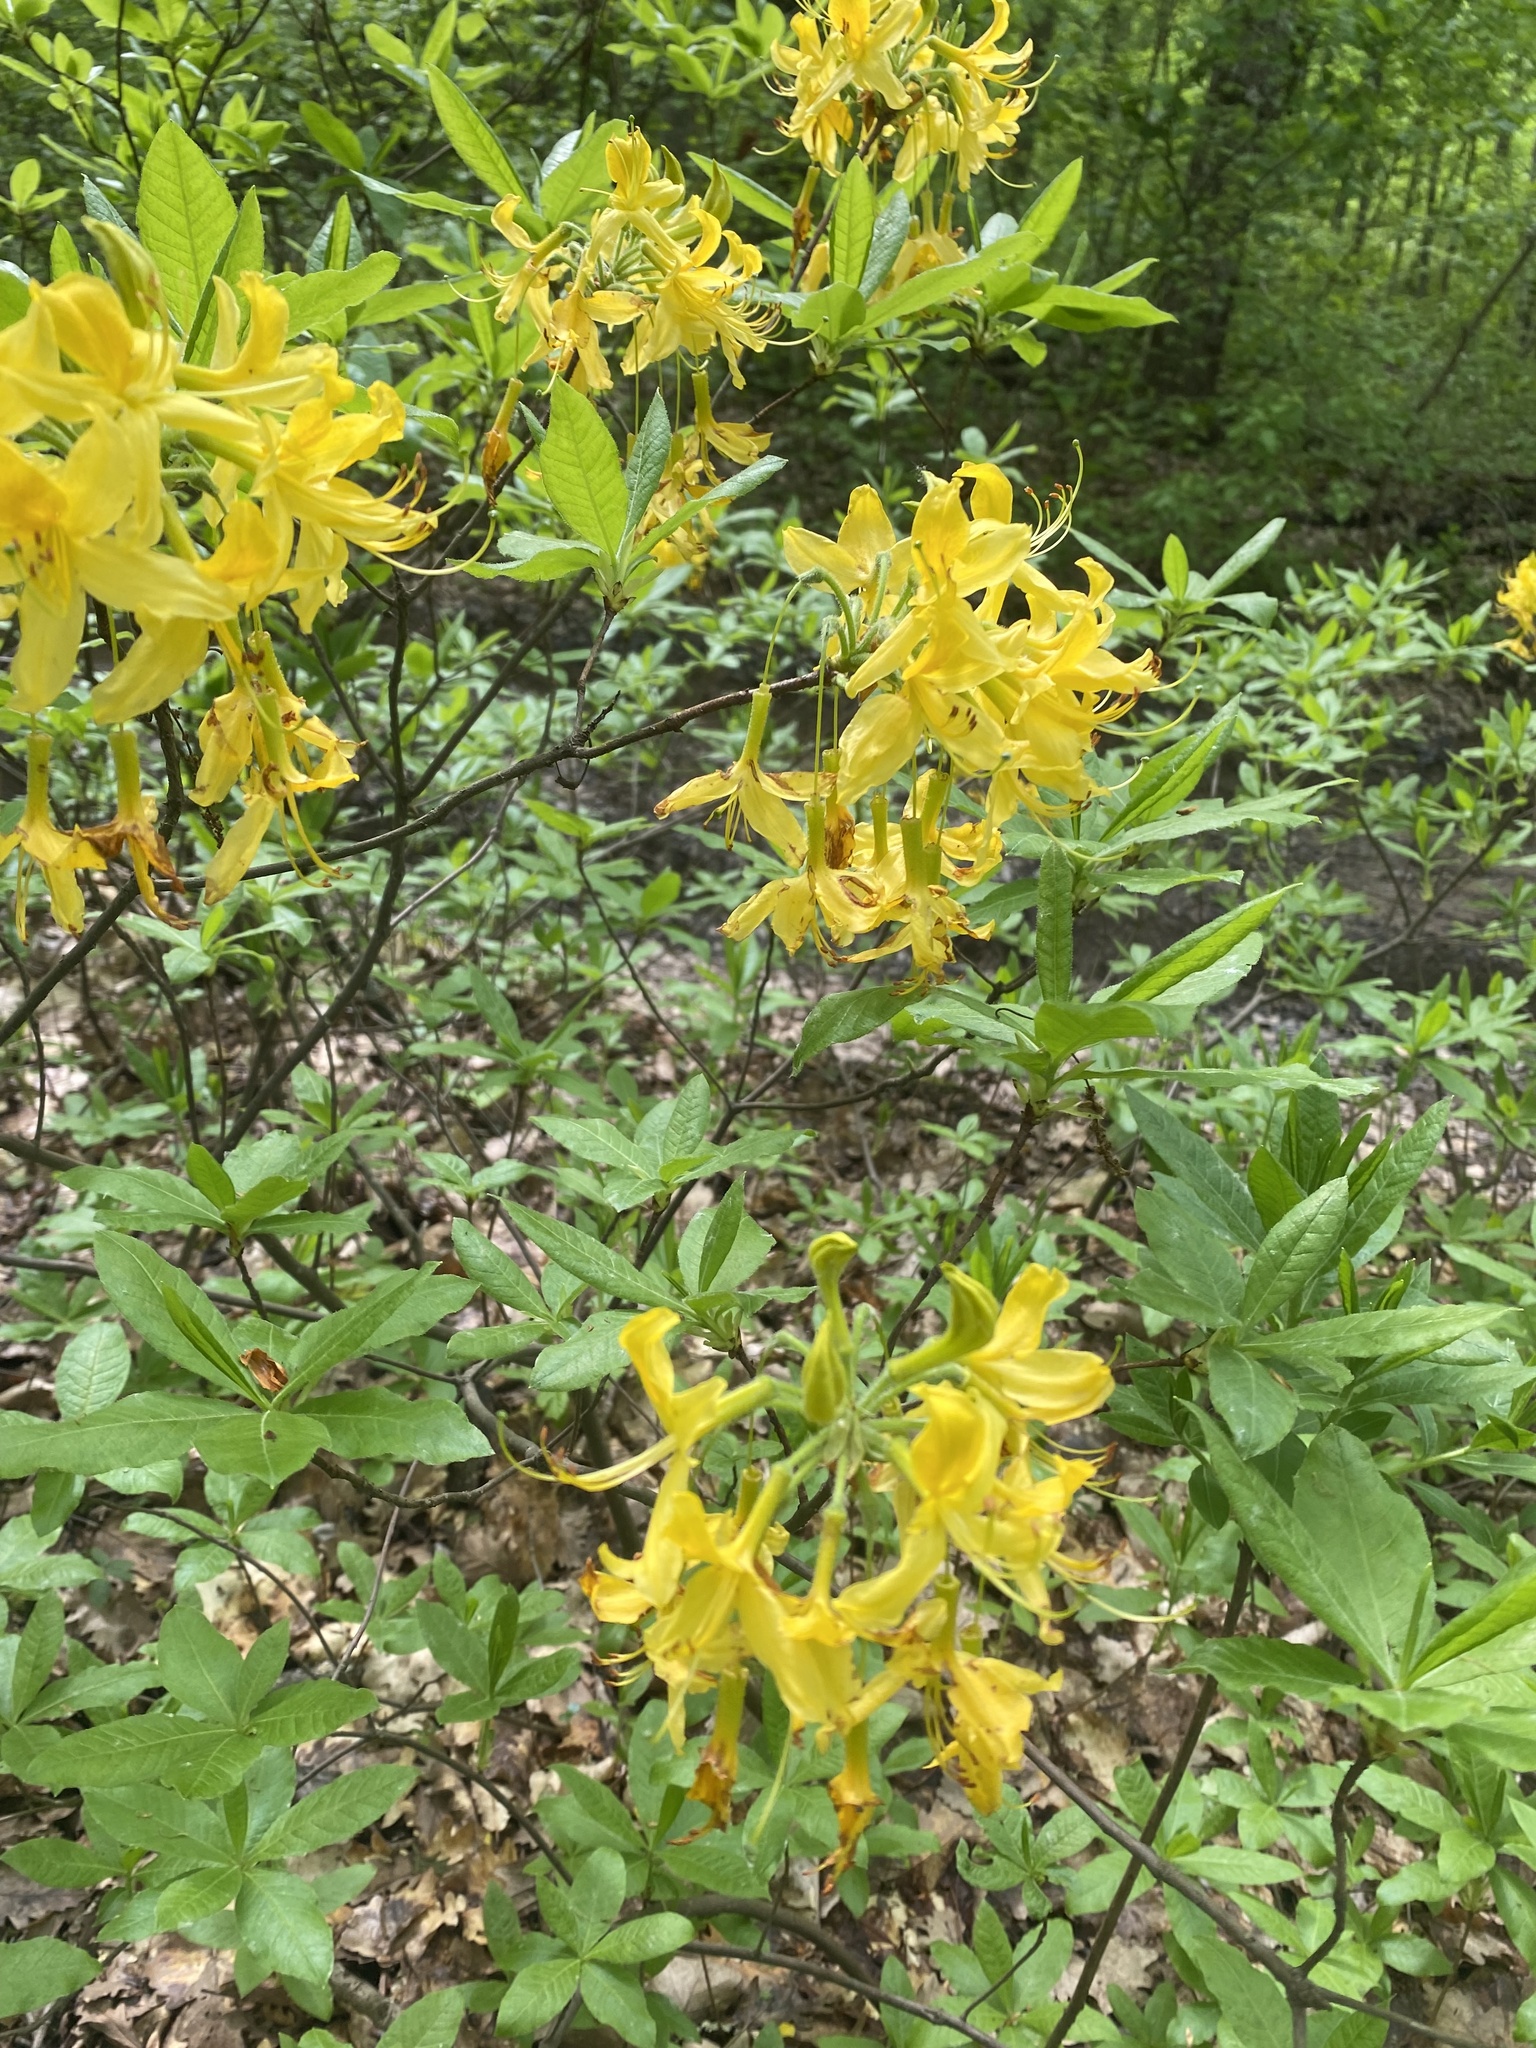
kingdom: Plantae
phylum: Tracheophyta
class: Magnoliopsida
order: Ericales
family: Ericaceae
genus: Rhododendron
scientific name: Rhododendron luteum
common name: Yellow azalea
